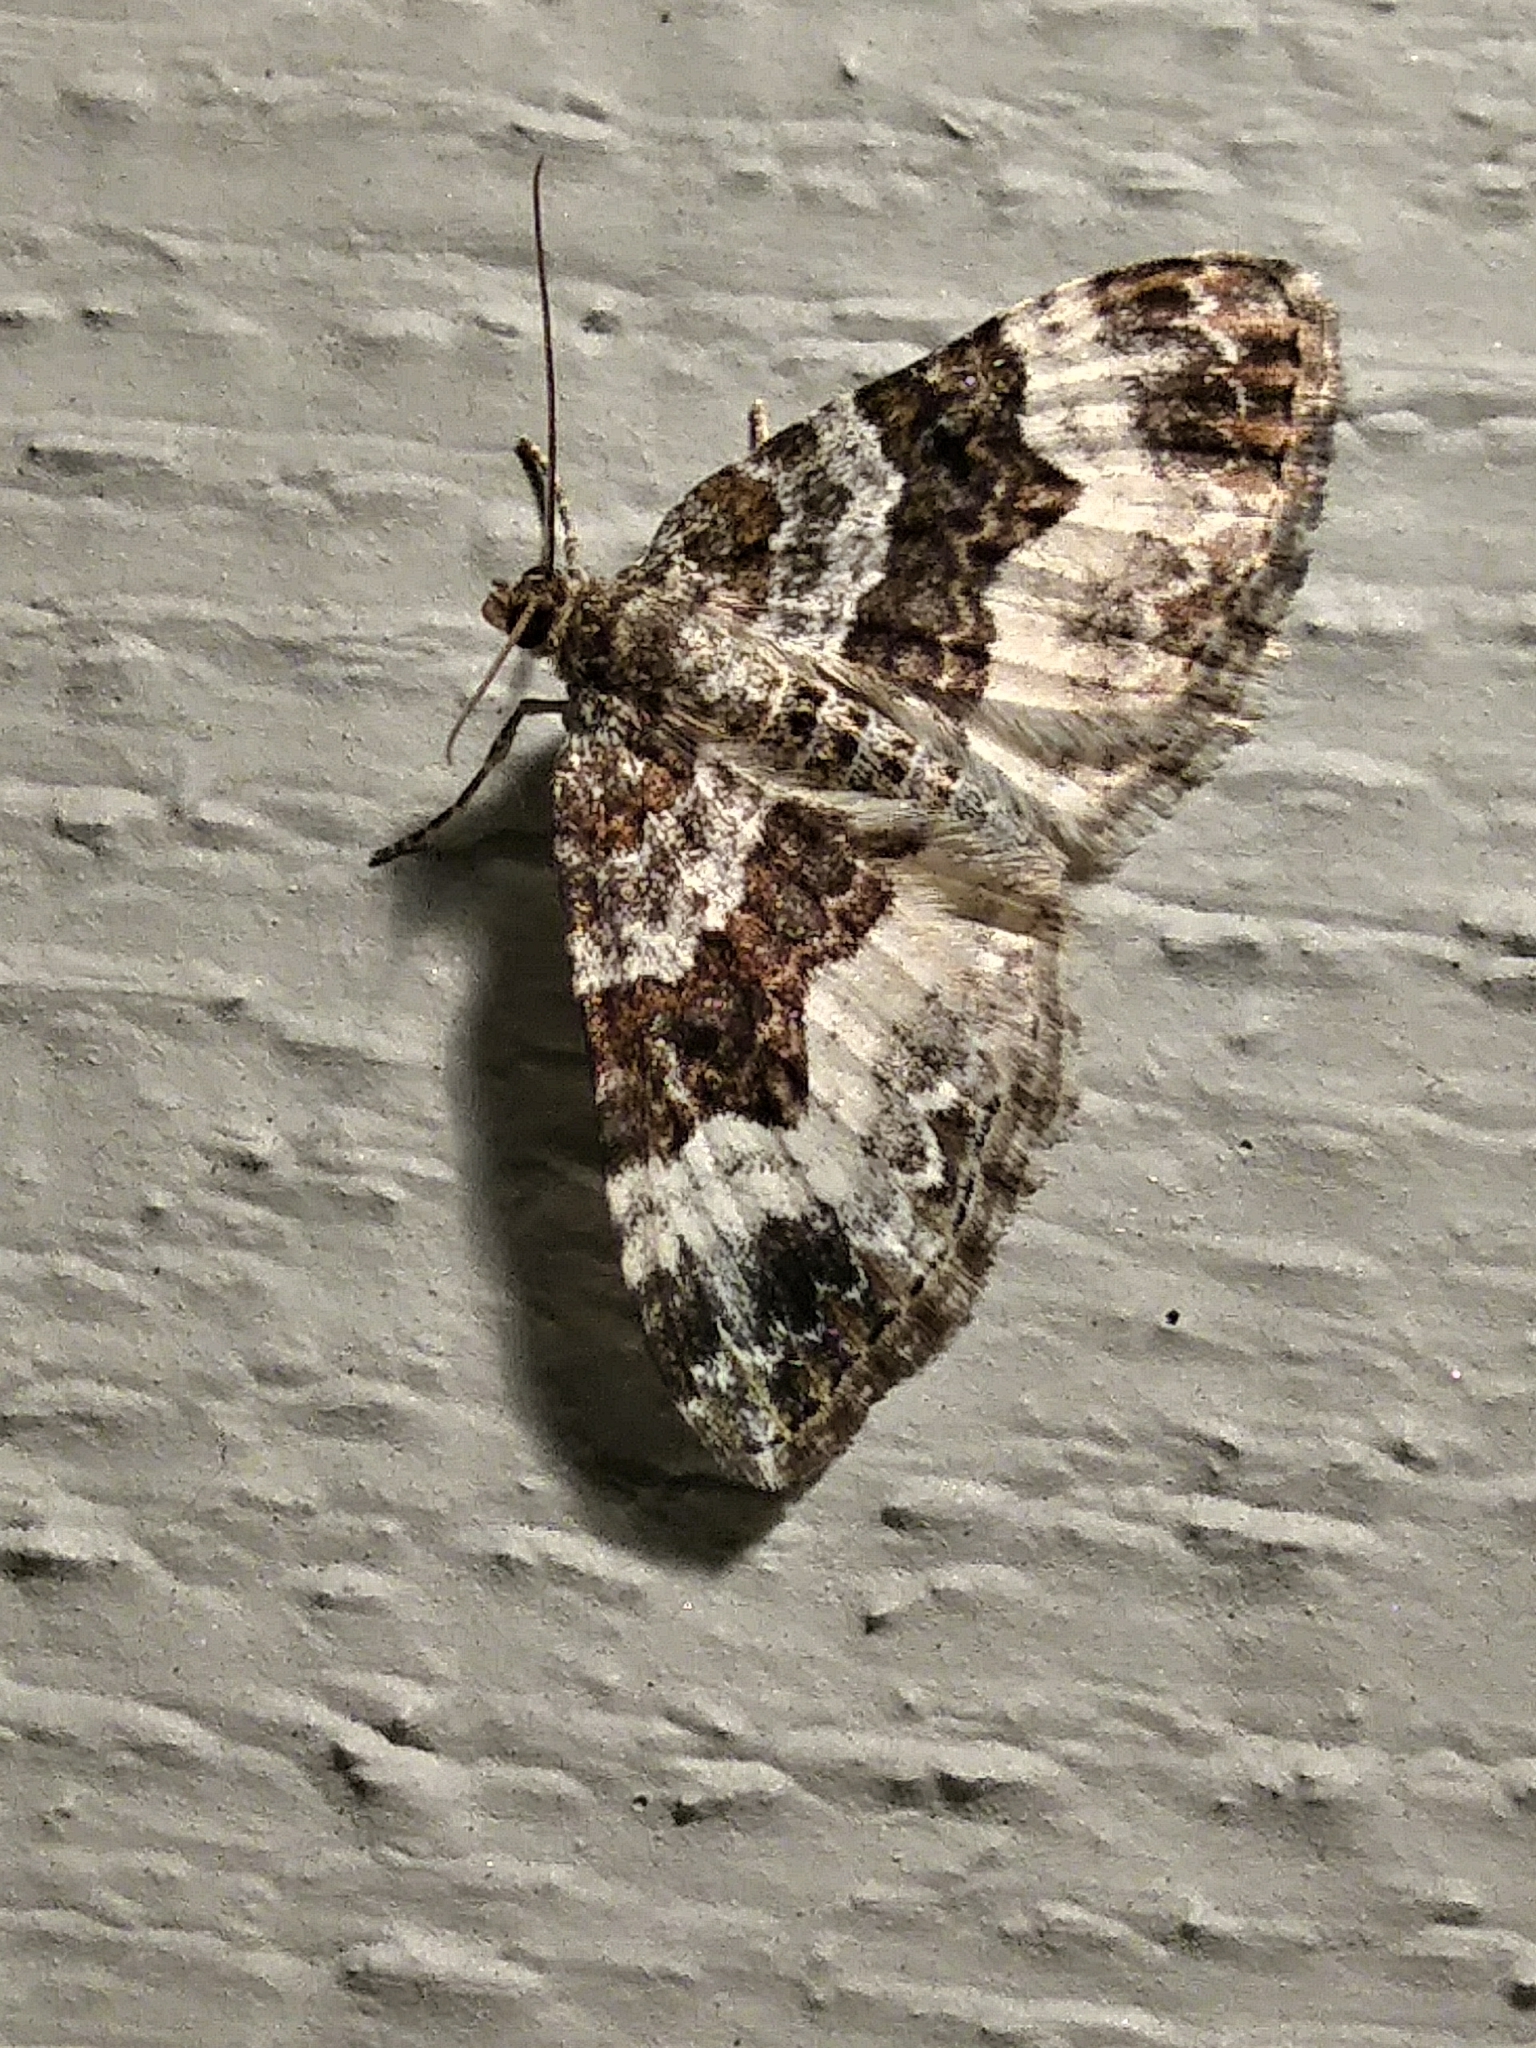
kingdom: Animalia
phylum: Arthropoda
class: Insecta
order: Lepidoptera
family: Geometridae
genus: Epirrhoe
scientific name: Epirrhoe alternata
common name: Common carpet
